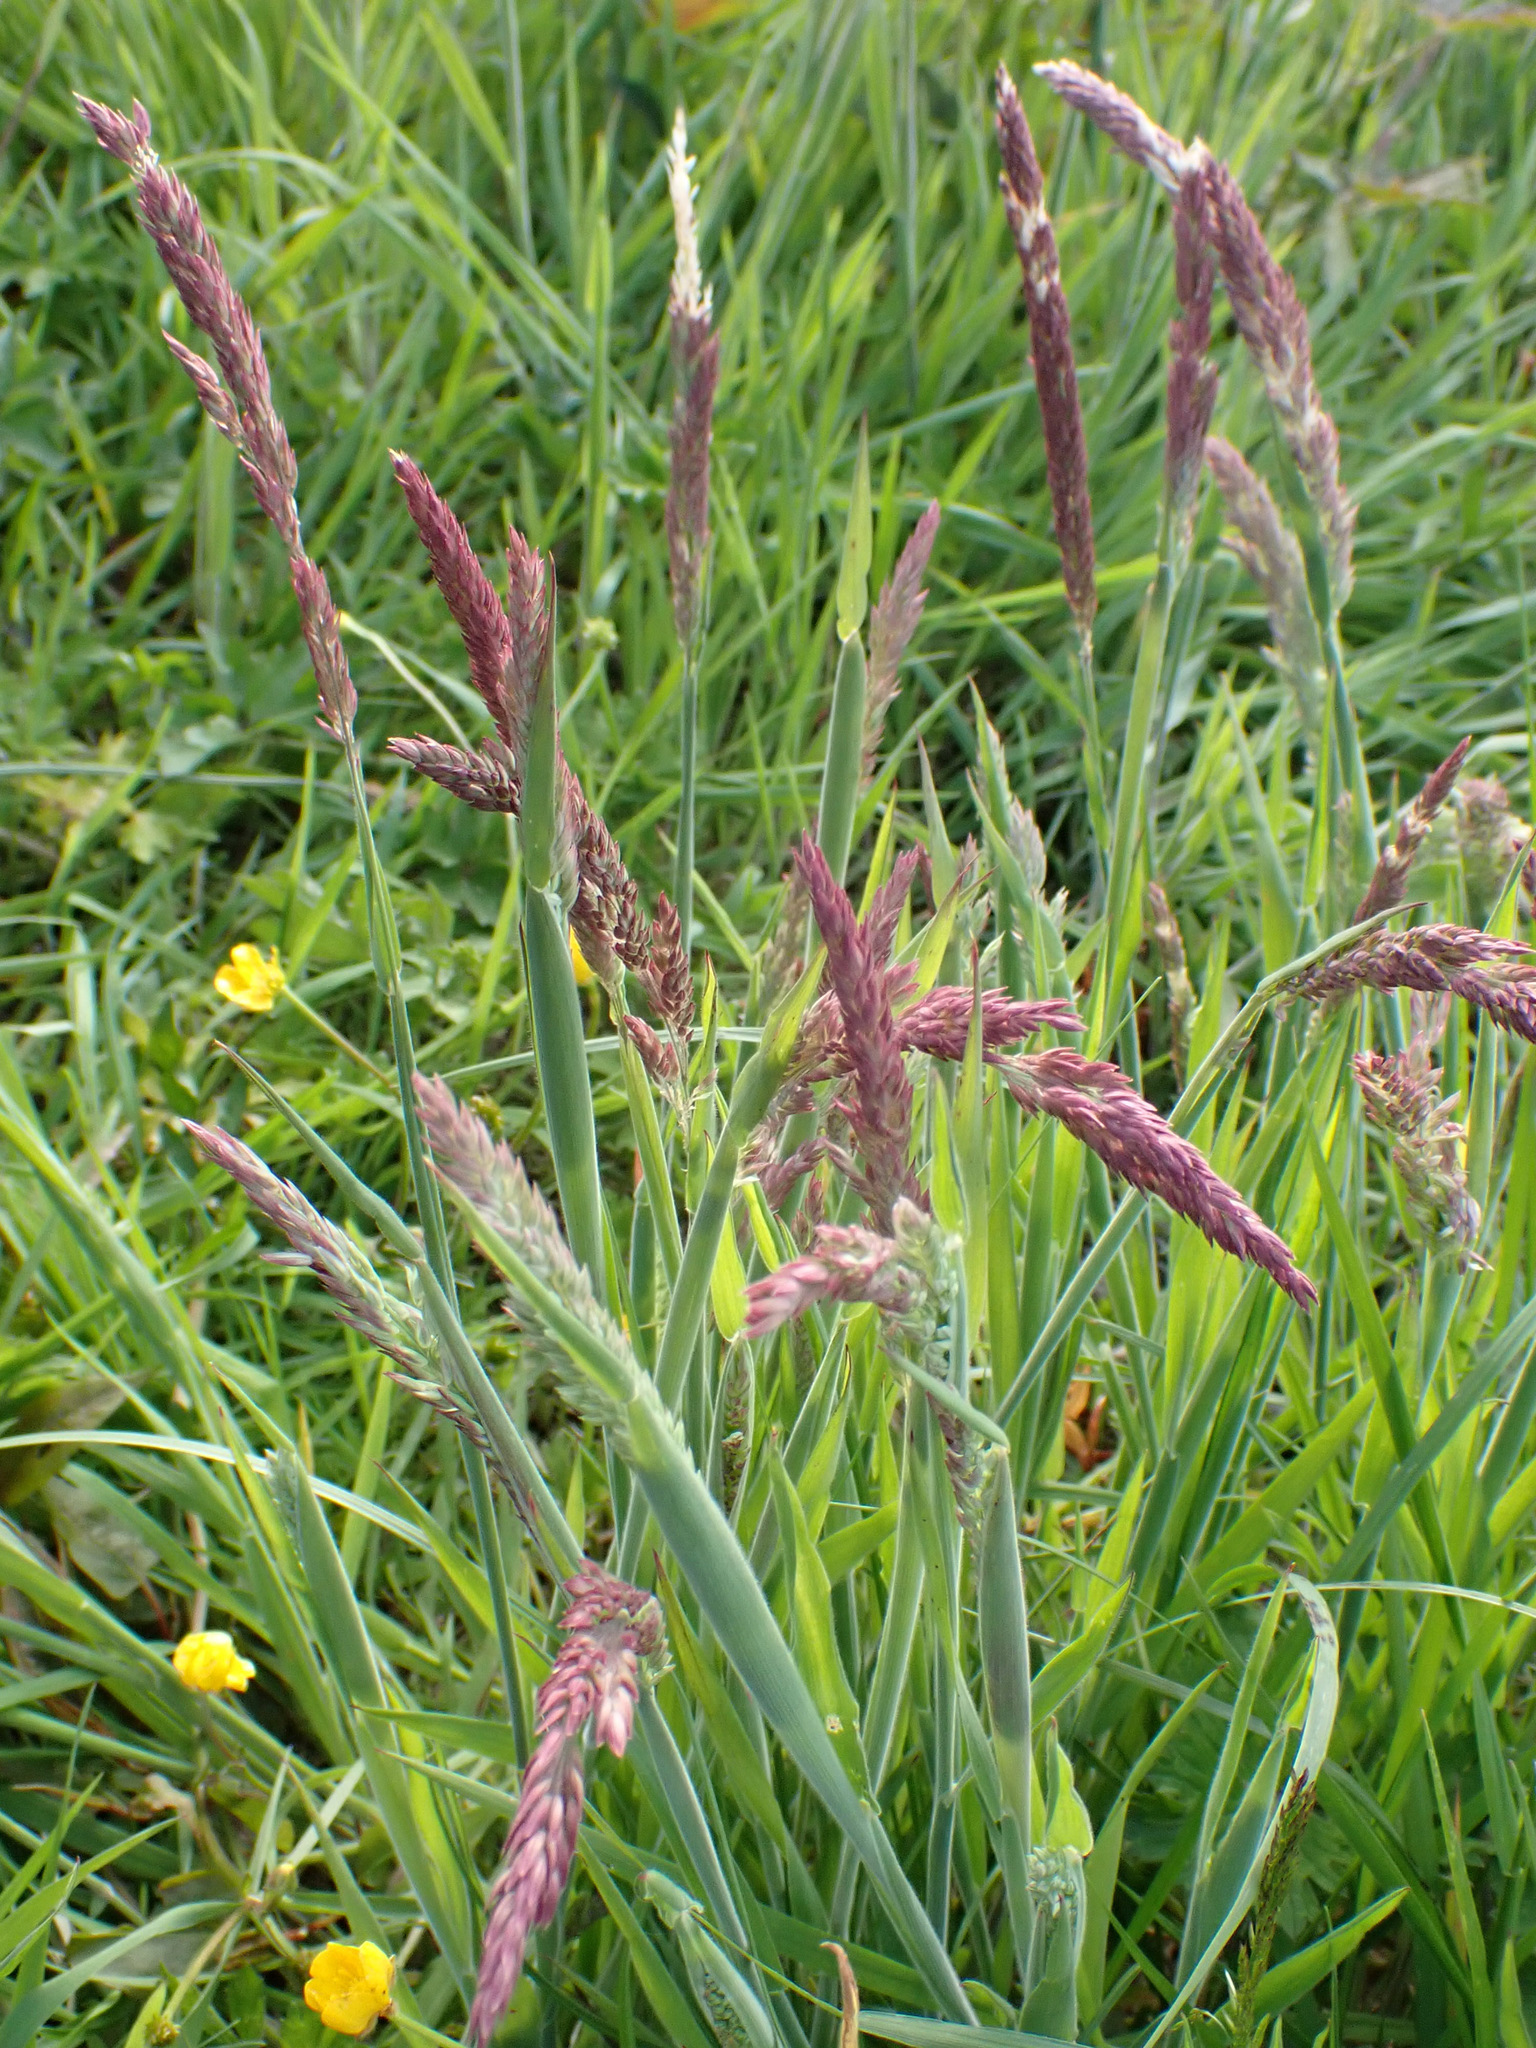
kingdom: Plantae
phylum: Tracheophyta
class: Liliopsida
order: Poales
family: Poaceae
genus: Holcus
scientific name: Holcus lanatus
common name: Yorkshire-fog
